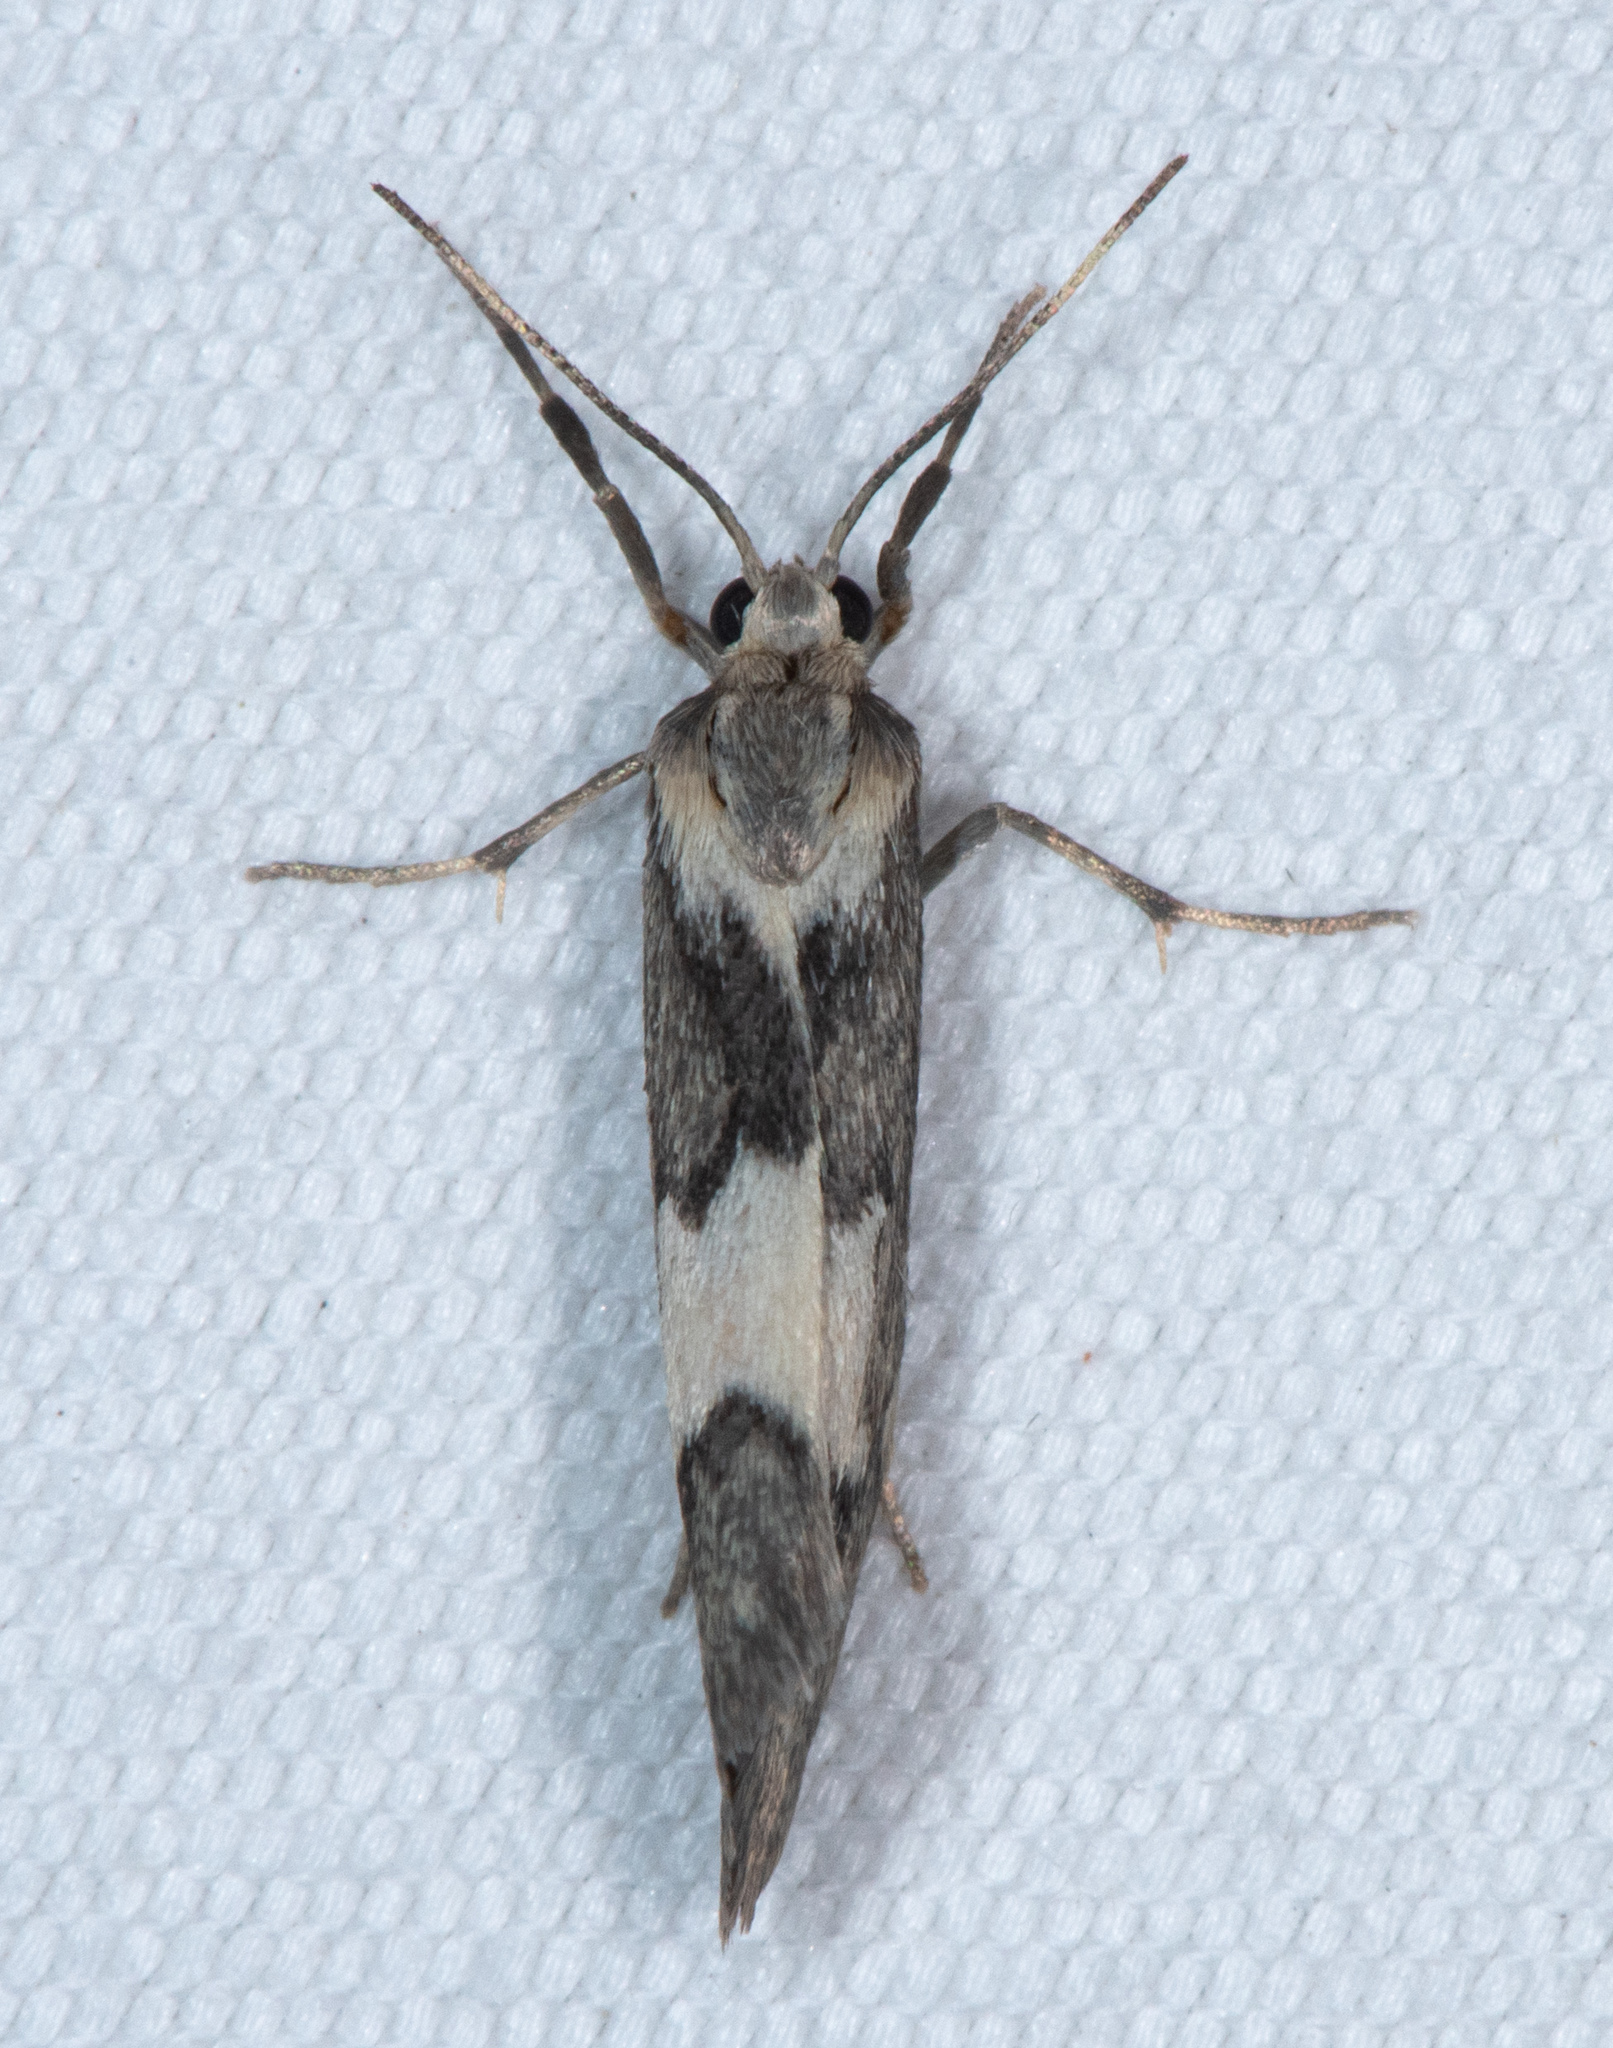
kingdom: Animalia
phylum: Arthropoda
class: Insecta
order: Lepidoptera
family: Erebidae
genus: Cisthene
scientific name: Cisthene deserta
